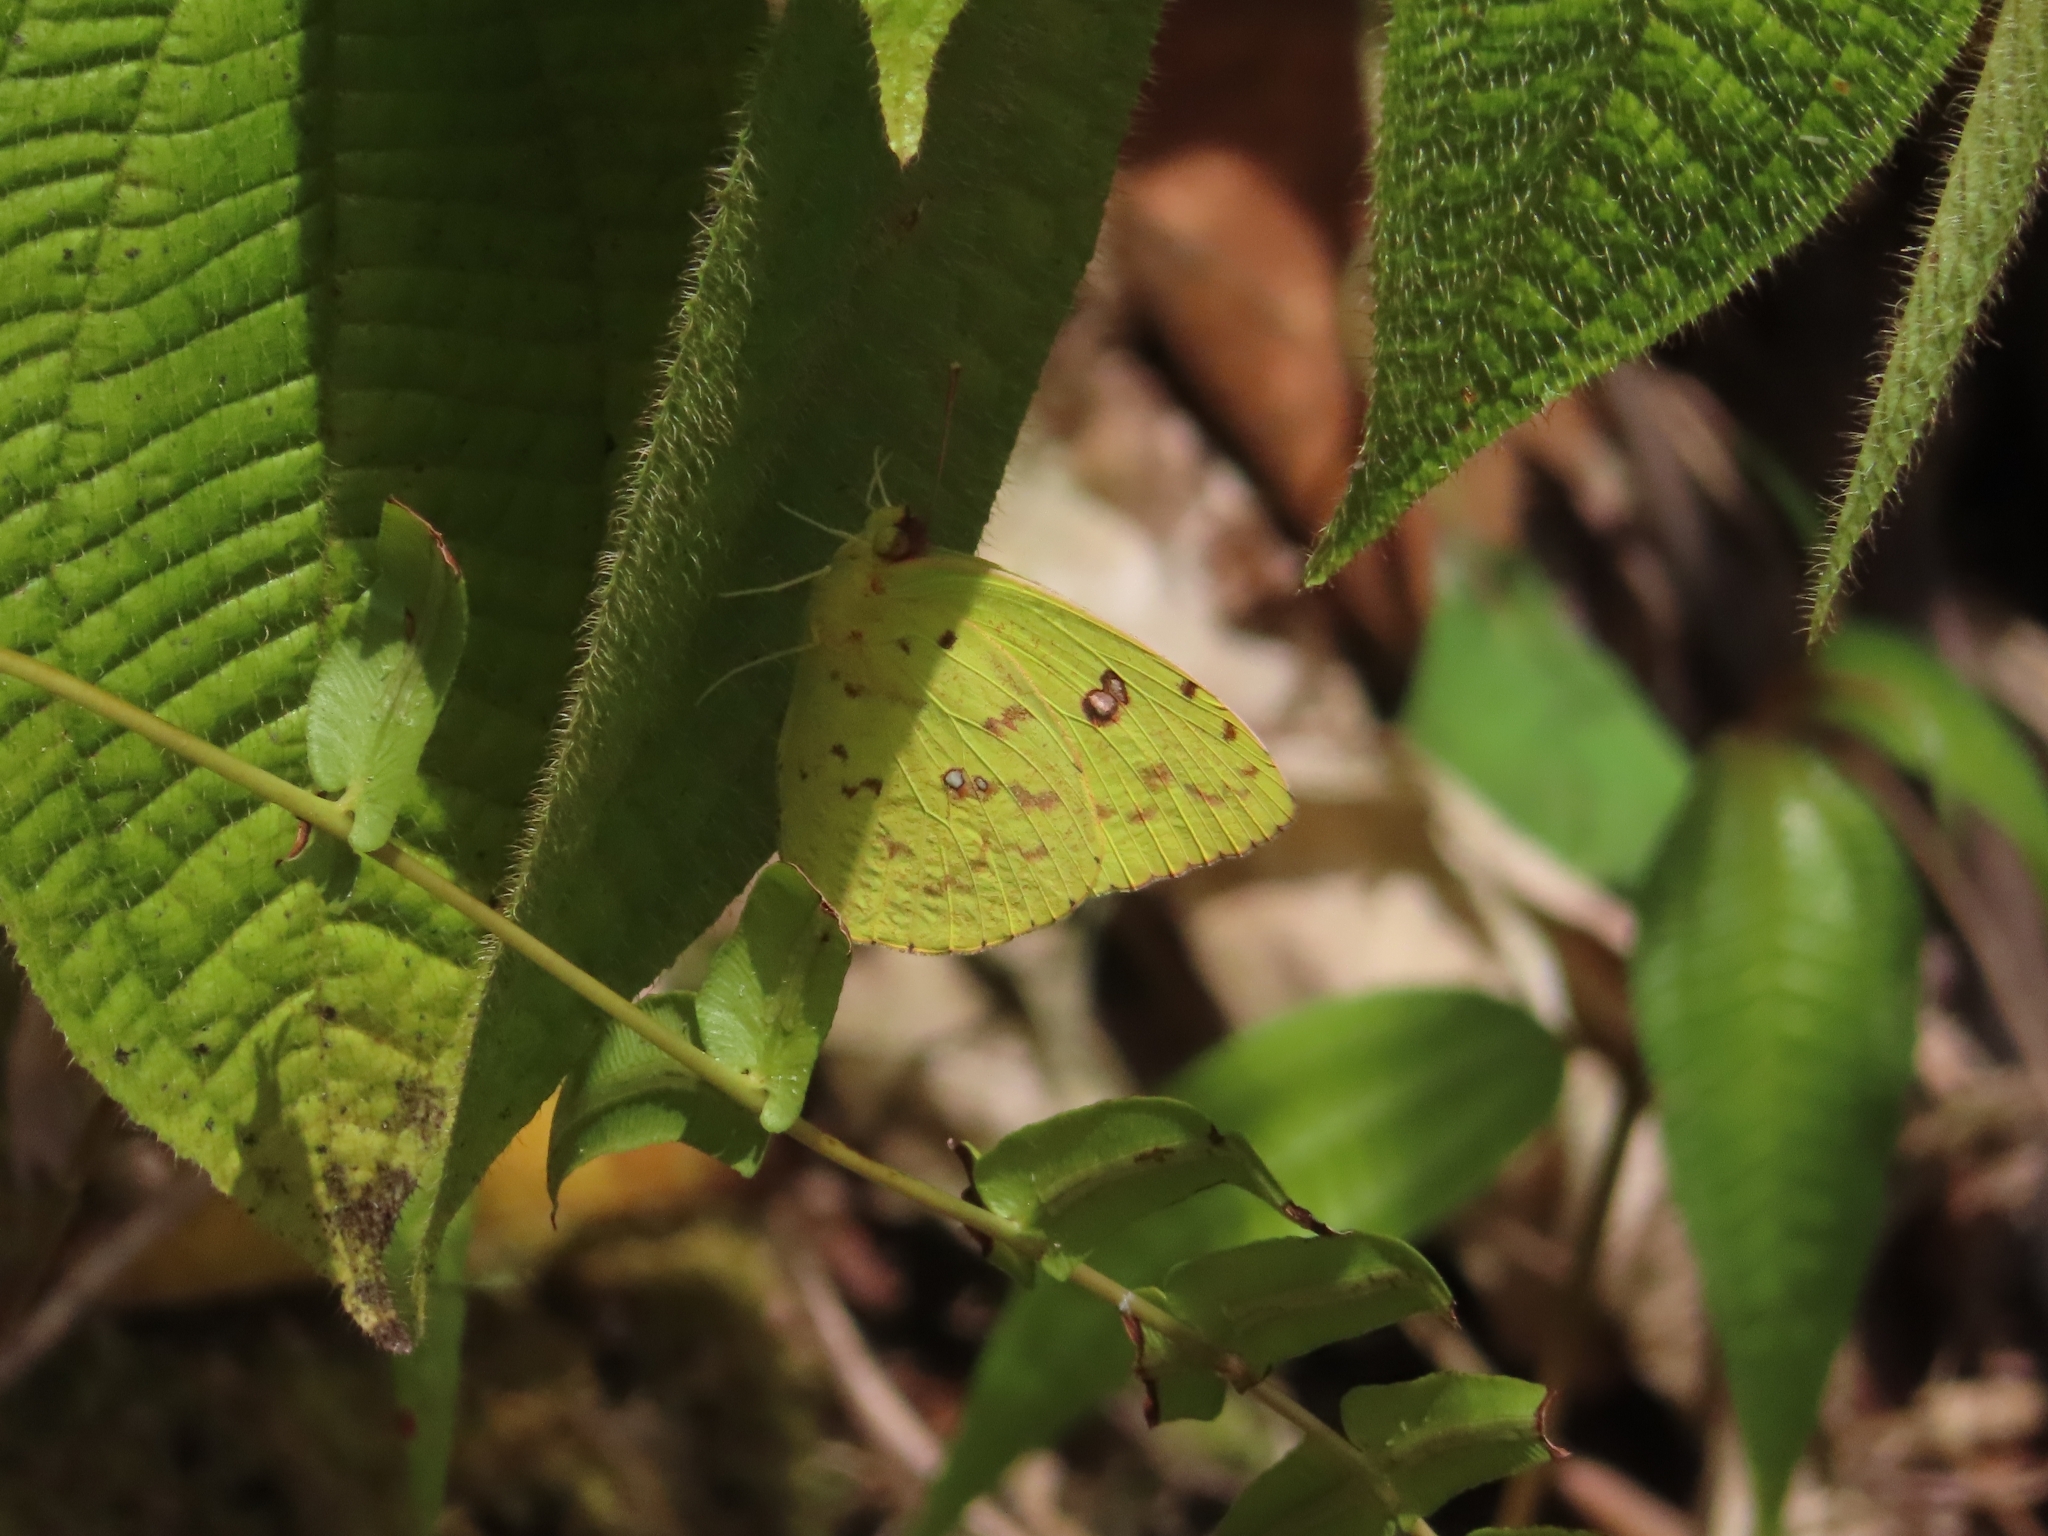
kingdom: Animalia
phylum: Arthropoda
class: Insecta
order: Lepidoptera
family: Pieridae
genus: Phoebis
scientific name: Phoebis sennae
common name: Cloudless sulphur
